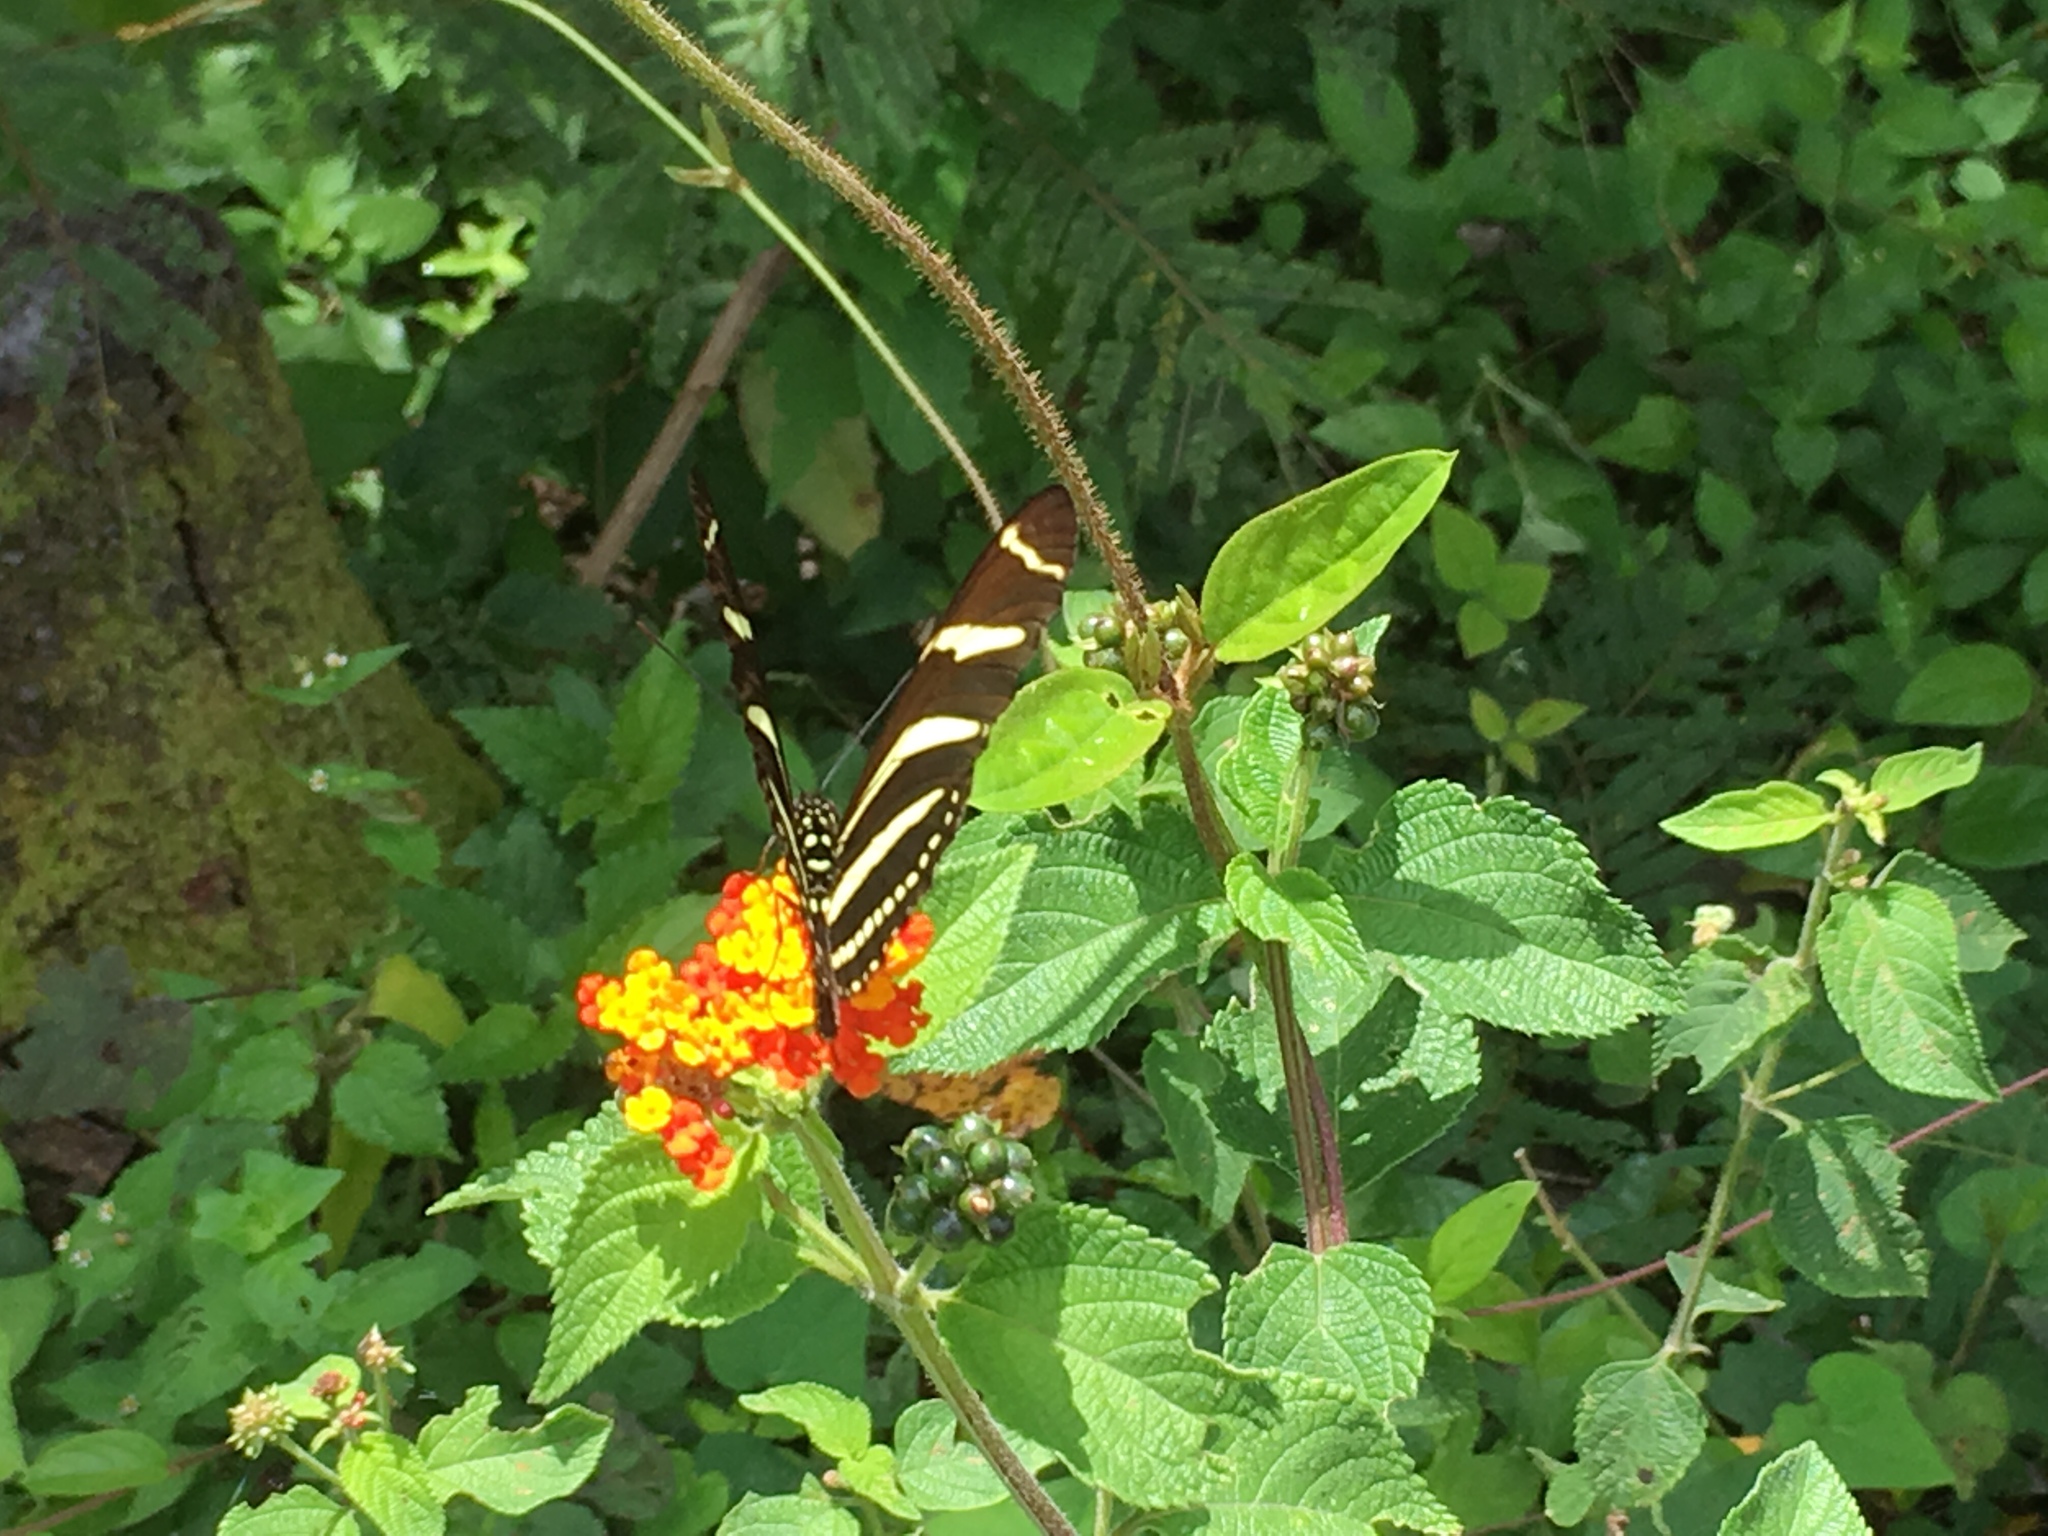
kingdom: Animalia
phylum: Arthropoda
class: Insecta
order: Lepidoptera
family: Nymphalidae
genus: Heliconius
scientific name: Heliconius charithonia
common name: Zebra long wing
